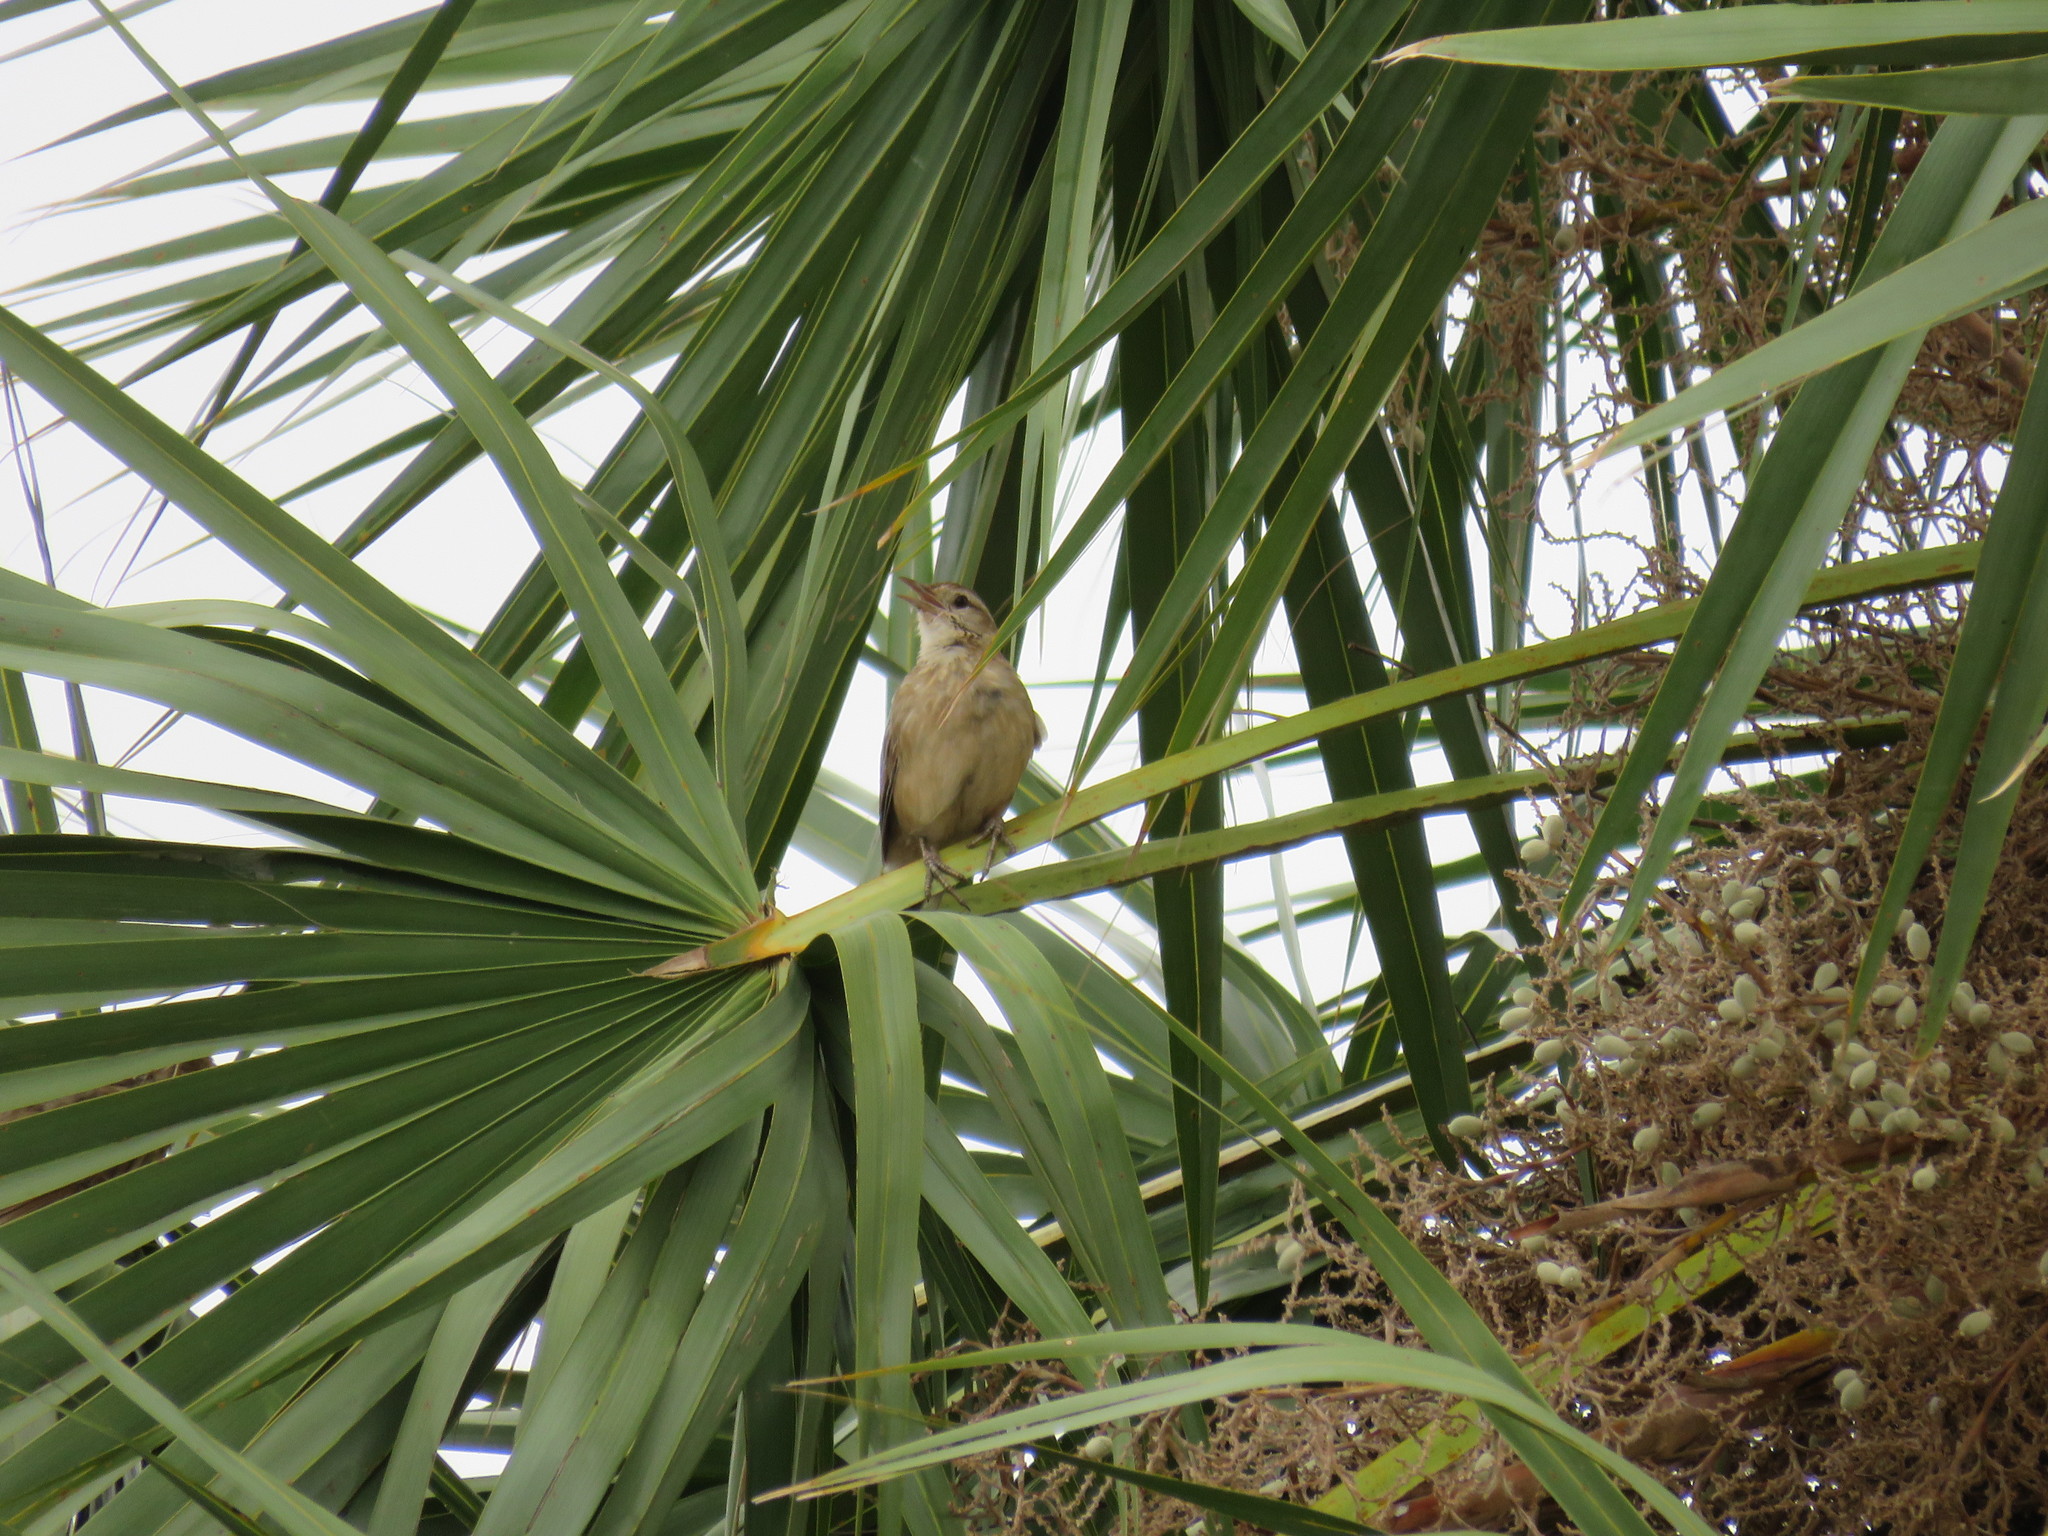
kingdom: Animalia
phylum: Chordata
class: Aves
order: Passeriformes
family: Furnariidae
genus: Anumbius
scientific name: Anumbius annumbi
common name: Firewood-gatherer
